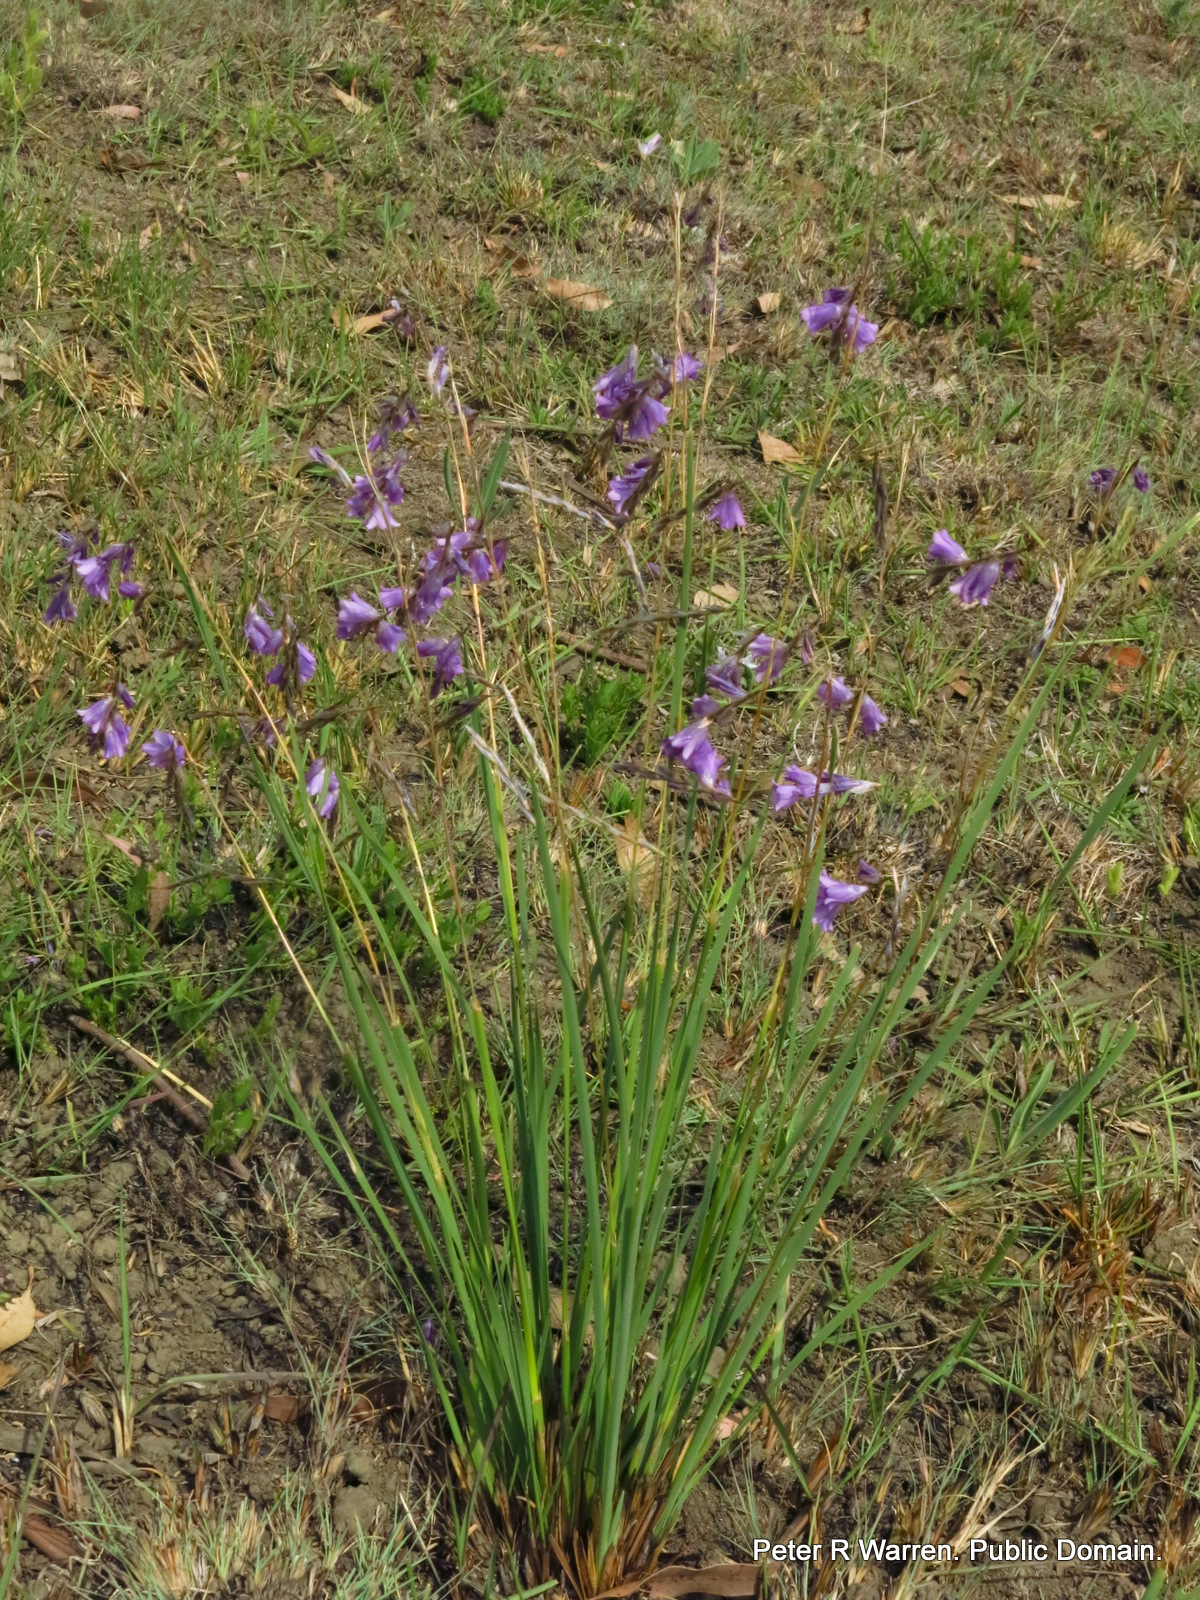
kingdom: Plantae
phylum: Tracheophyta
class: Liliopsida
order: Asparagales
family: Iridaceae
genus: Dierama
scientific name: Dierama floriferum
